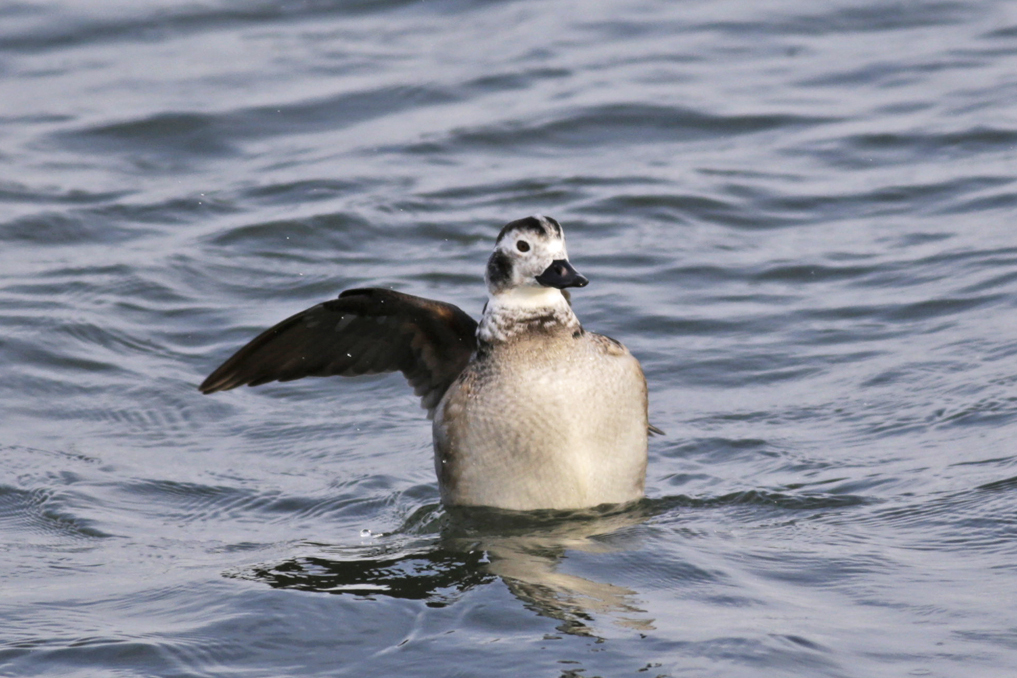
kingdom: Animalia
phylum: Chordata
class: Aves
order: Anseriformes
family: Anatidae
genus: Clangula
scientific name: Clangula hyemalis
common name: Long-tailed duck
